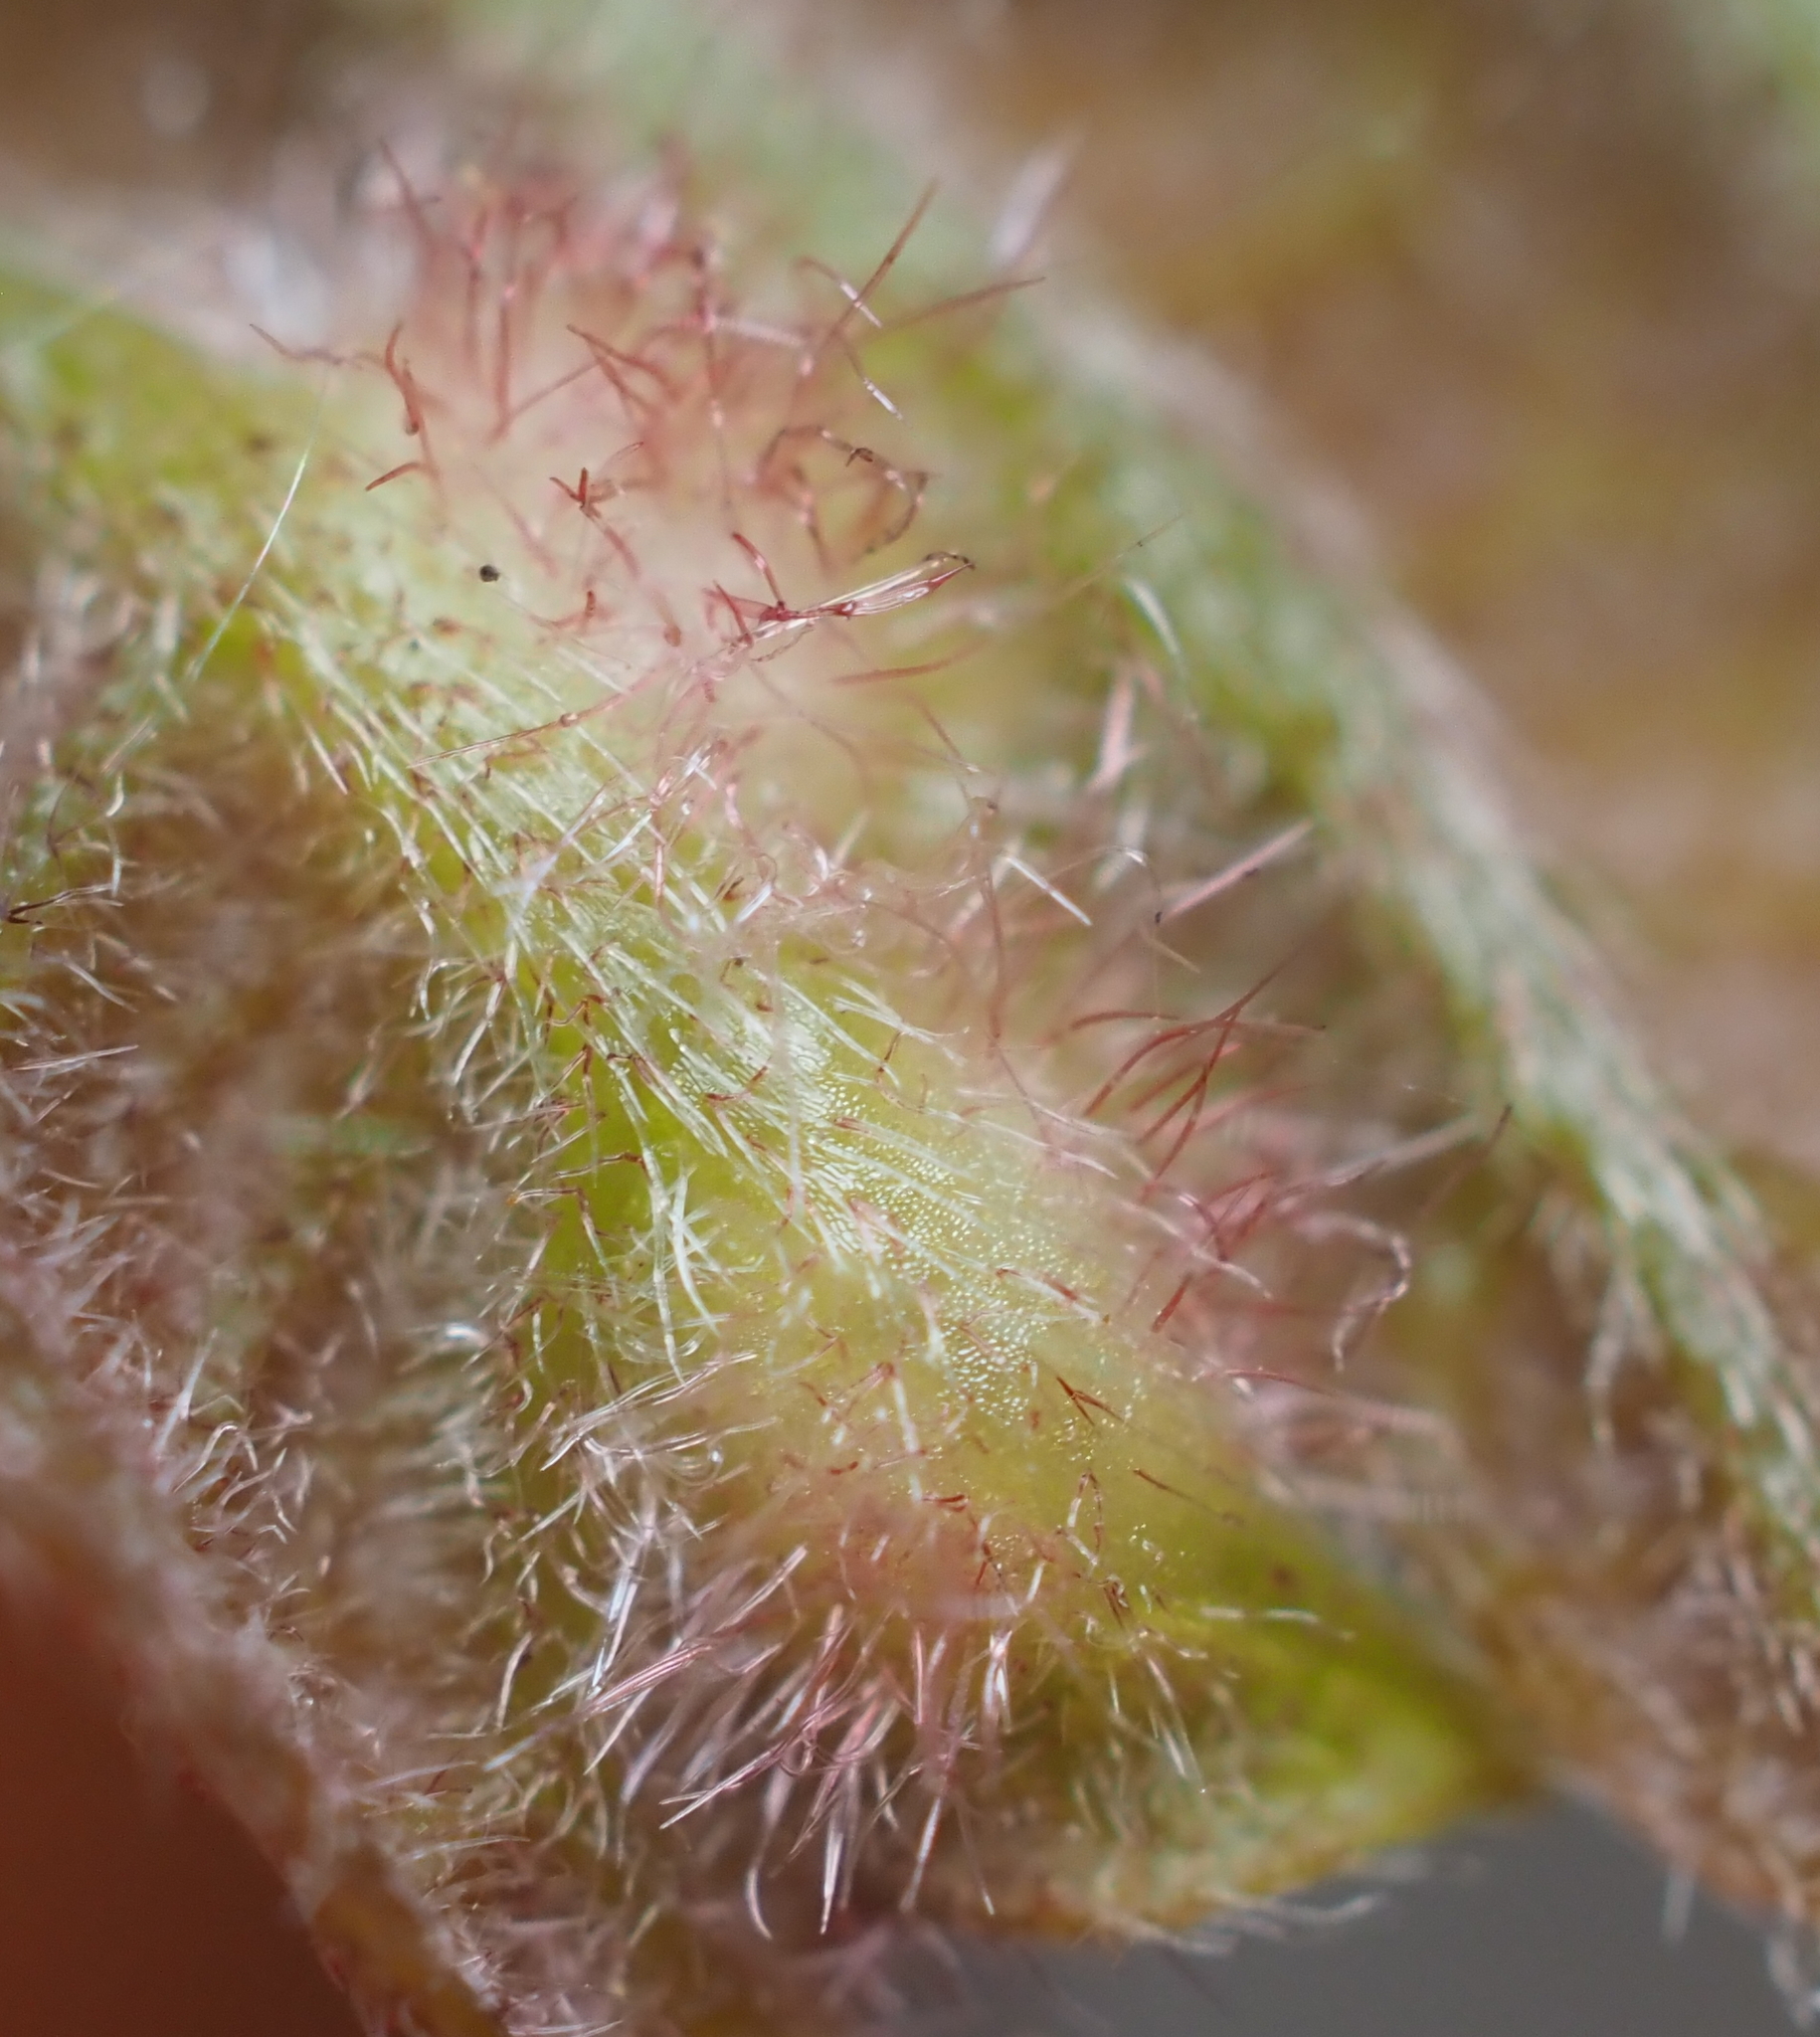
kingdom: Animalia
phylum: Arthropoda
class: Insecta
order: Hymenoptera
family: Cynipidae
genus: Neuroterus
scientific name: Neuroterus
